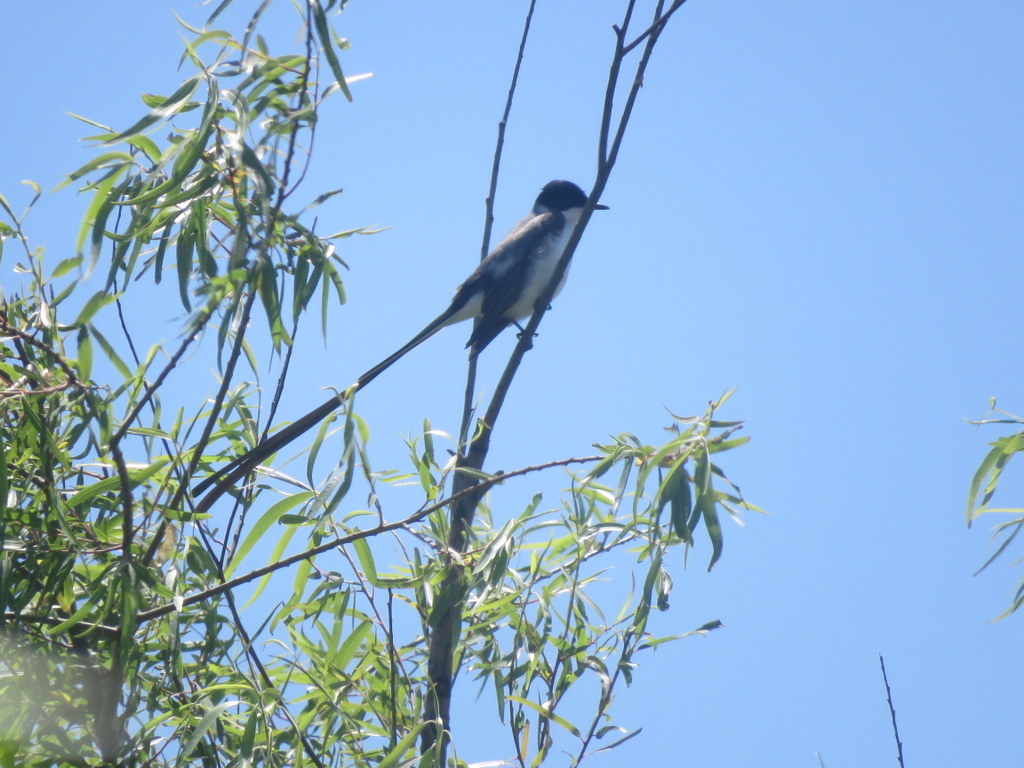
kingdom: Animalia
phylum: Chordata
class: Aves
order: Passeriformes
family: Tyrannidae
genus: Tyrannus
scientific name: Tyrannus savana
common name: Fork-tailed flycatcher
